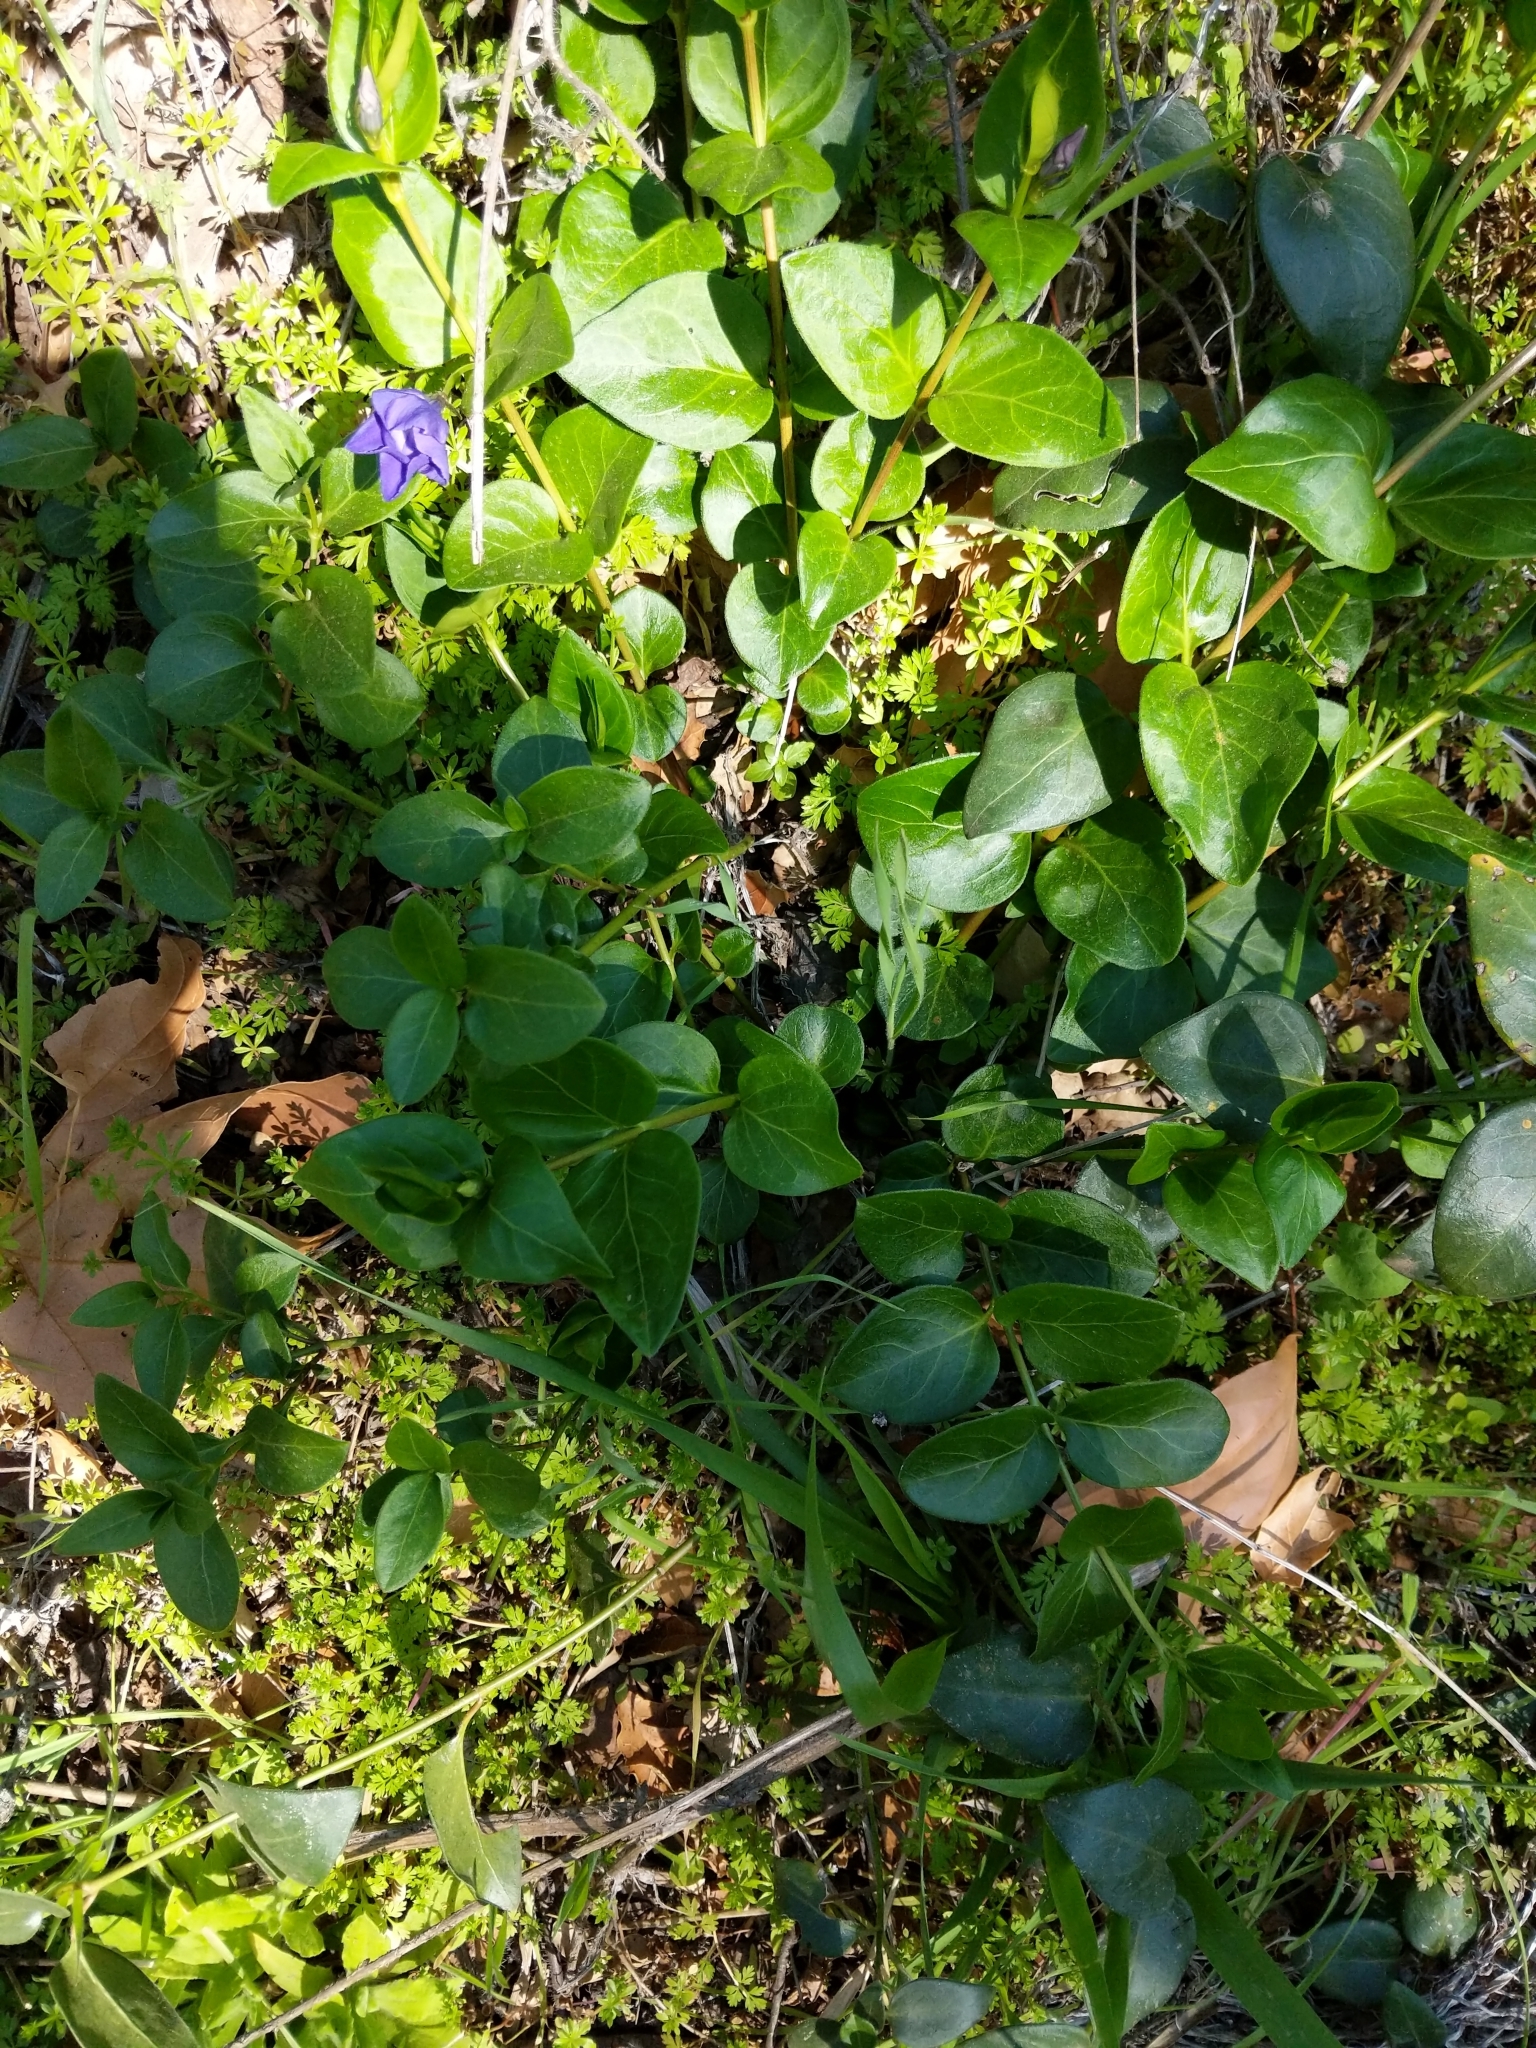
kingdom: Plantae
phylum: Tracheophyta
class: Magnoliopsida
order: Gentianales
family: Apocynaceae
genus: Vinca
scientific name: Vinca major
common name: Greater periwinkle
